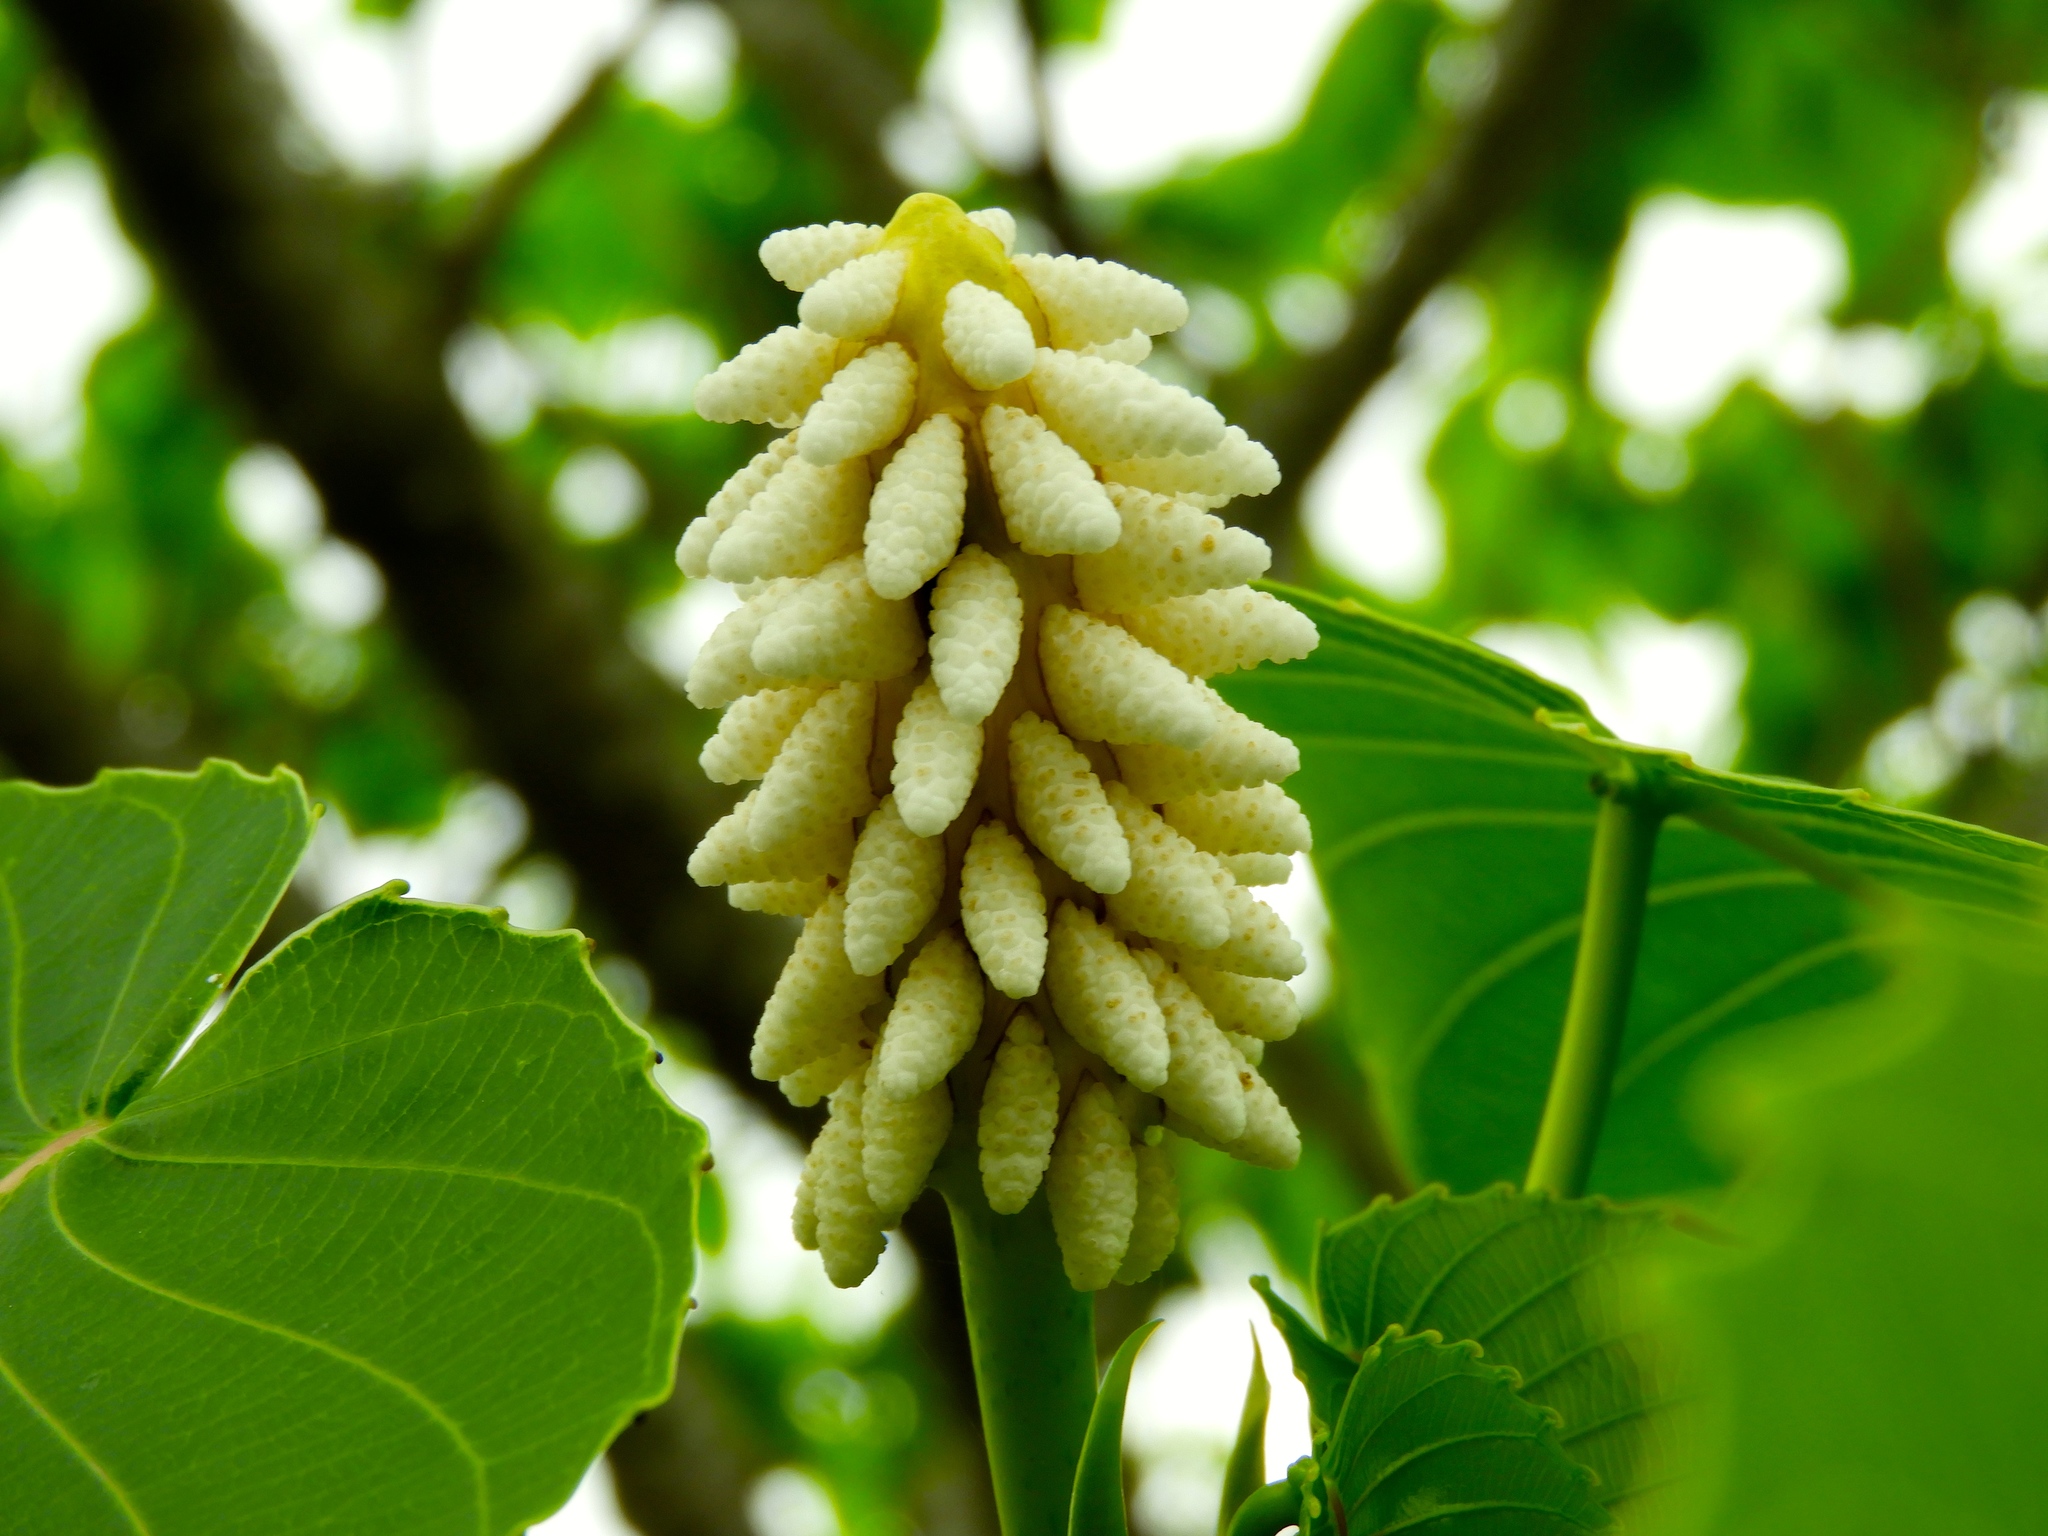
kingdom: Plantae
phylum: Tracheophyta
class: Magnoliopsida
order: Malpighiales
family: Euphorbiaceae
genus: Hura
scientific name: Hura polyandra
